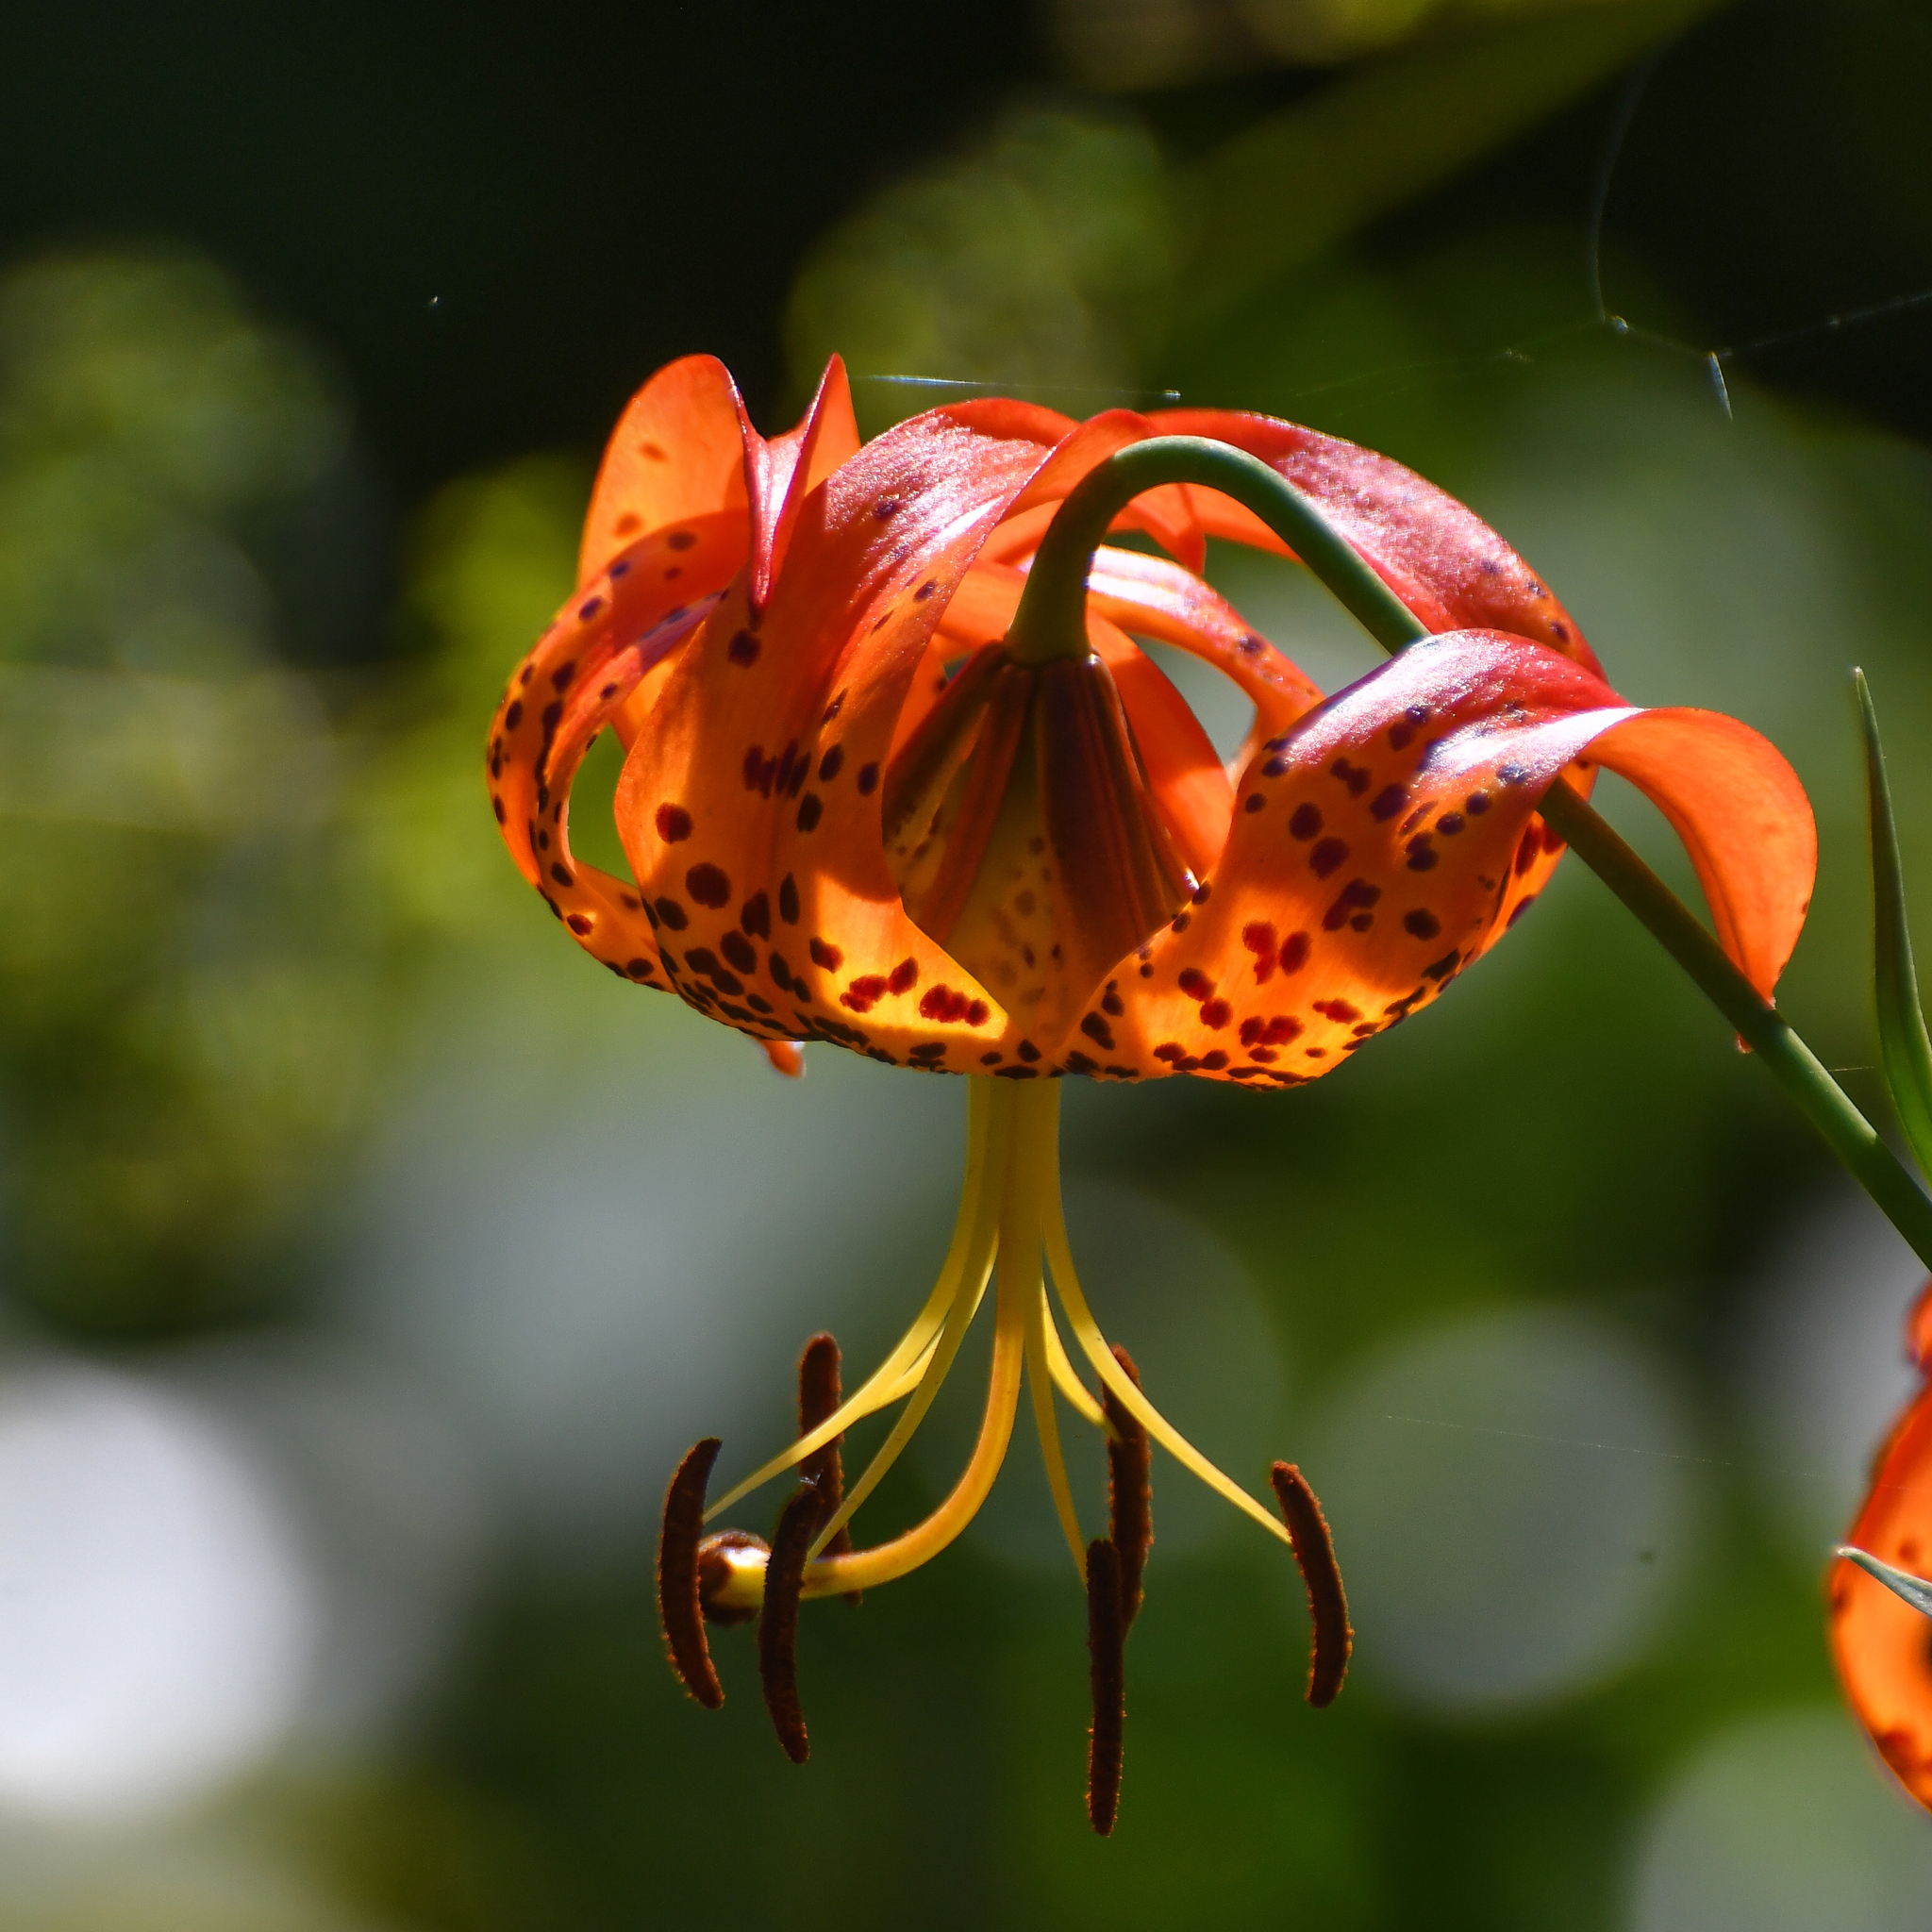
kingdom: Plantae
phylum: Tracheophyta
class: Liliopsida
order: Liliales
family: Liliaceae
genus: Lilium
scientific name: Lilium superbum
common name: American turk's-cap lily
